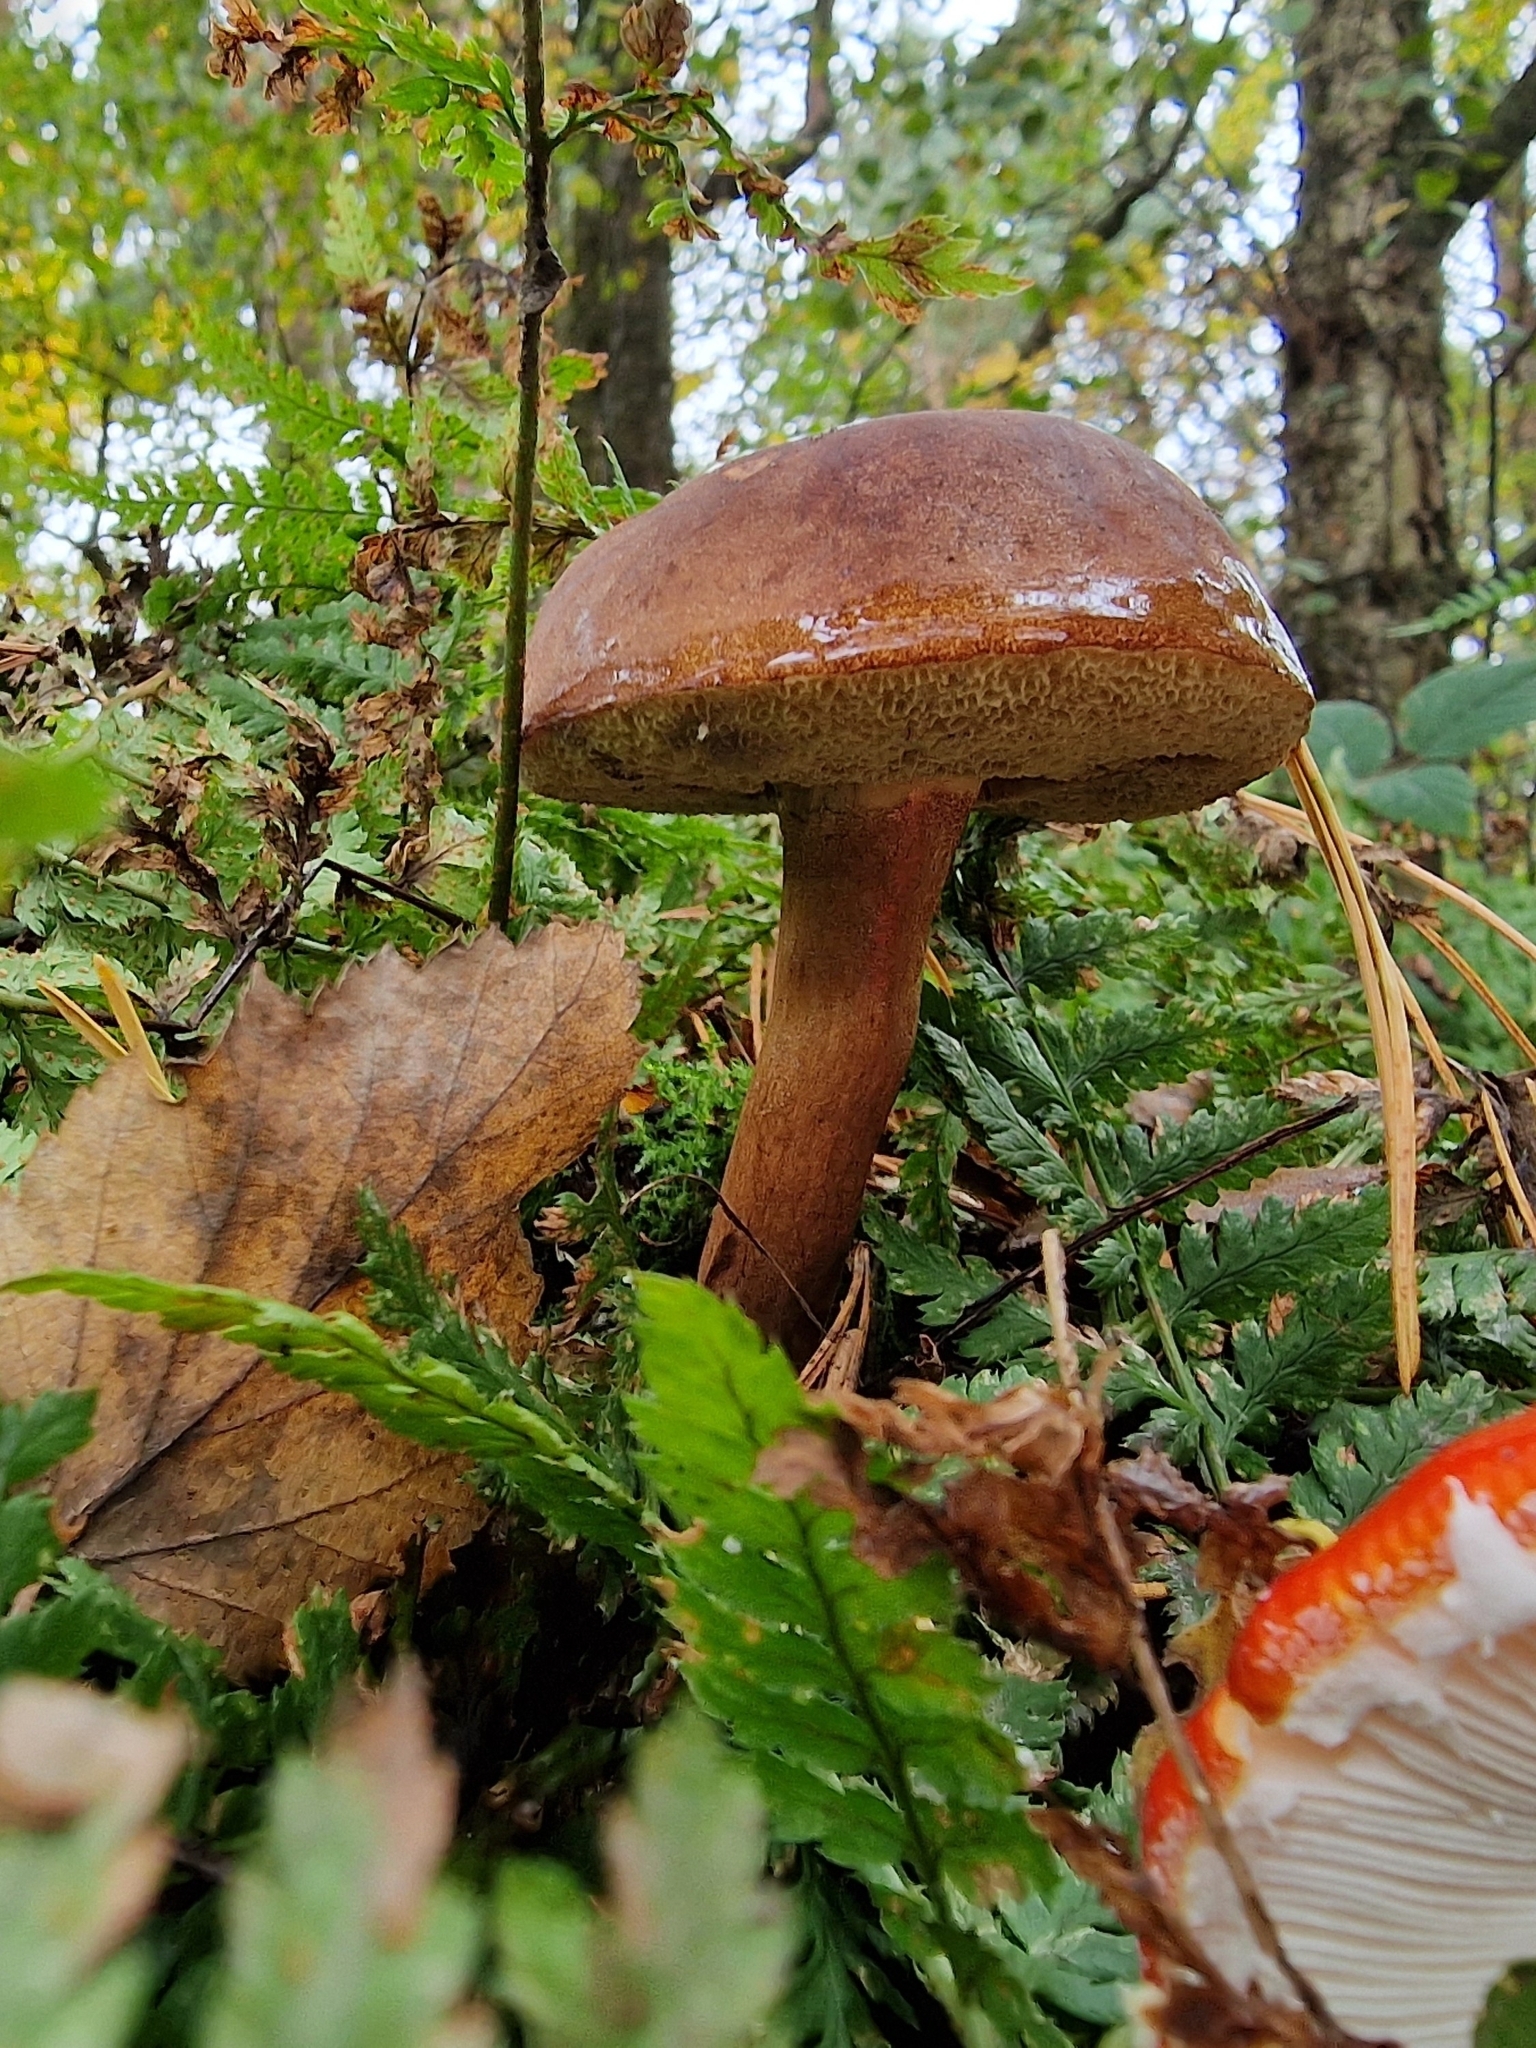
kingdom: Fungi
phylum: Basidiomycota
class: Agaricomycetes
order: Boletales
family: Boletaceae
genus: Imleria
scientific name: Imleria badia
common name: Bay bolete
